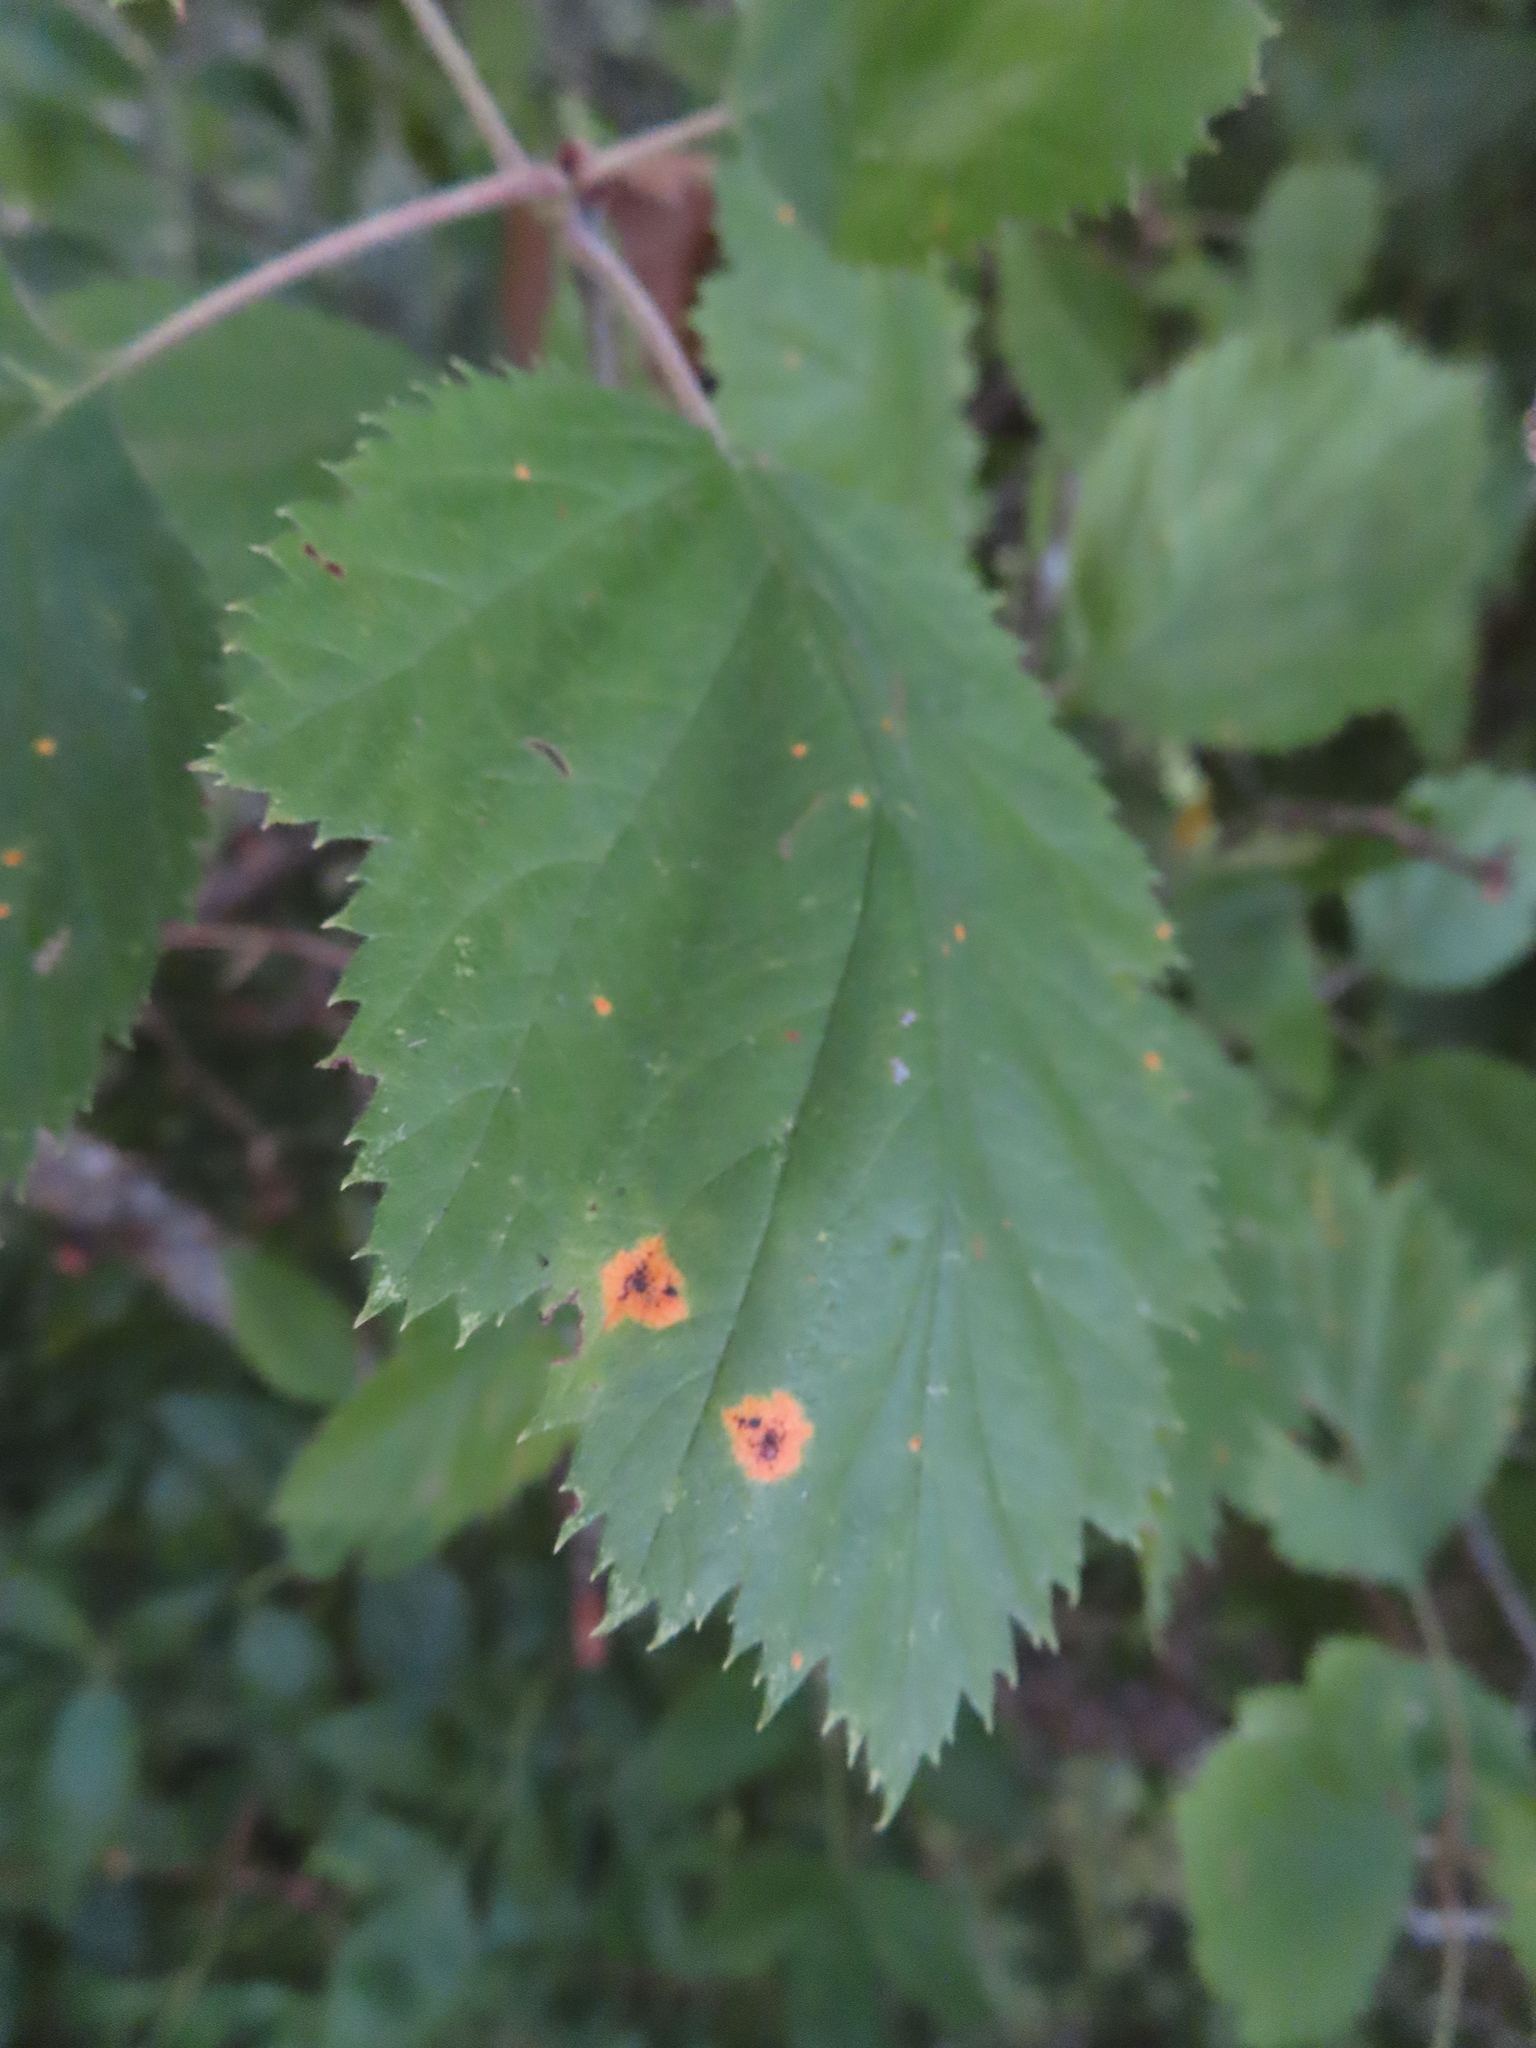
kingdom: Fungi
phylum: Basidiomycota
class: Pucciniomycetes
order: Pucciniales
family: Gymnosporangiaceae
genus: Gymnosporangium
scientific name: Gymnosporangium globosum
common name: Juniper-hawthorn rust
